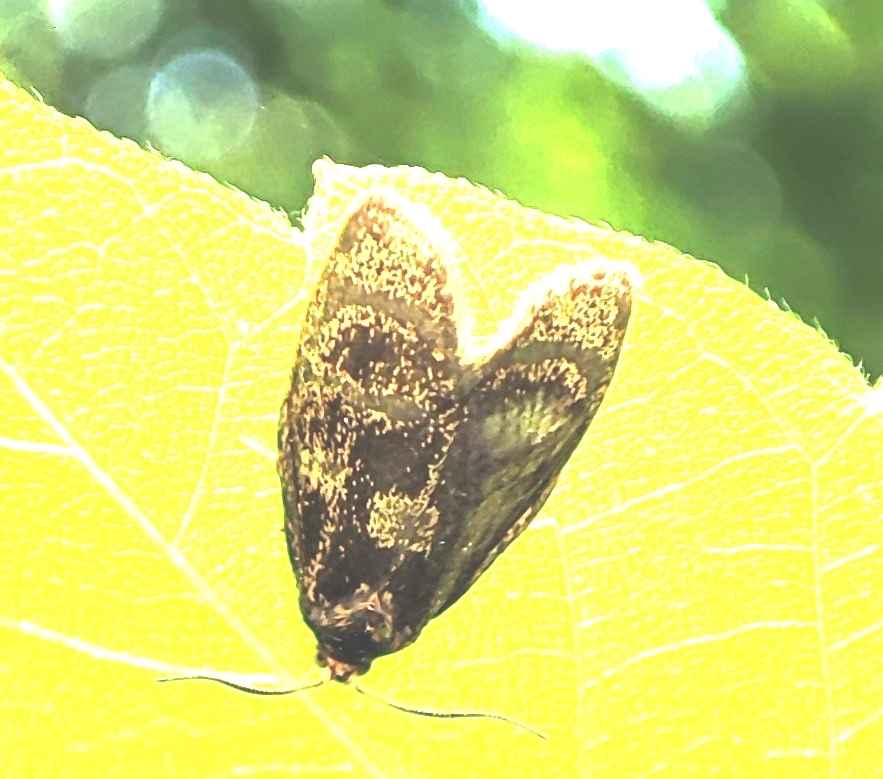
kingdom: Animalia
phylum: Arthropoda
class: Insecta
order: Lepidoptera
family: Tortricidae
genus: Ptycholoma
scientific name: Ptycholoma lecheana
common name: Leches twist moth
